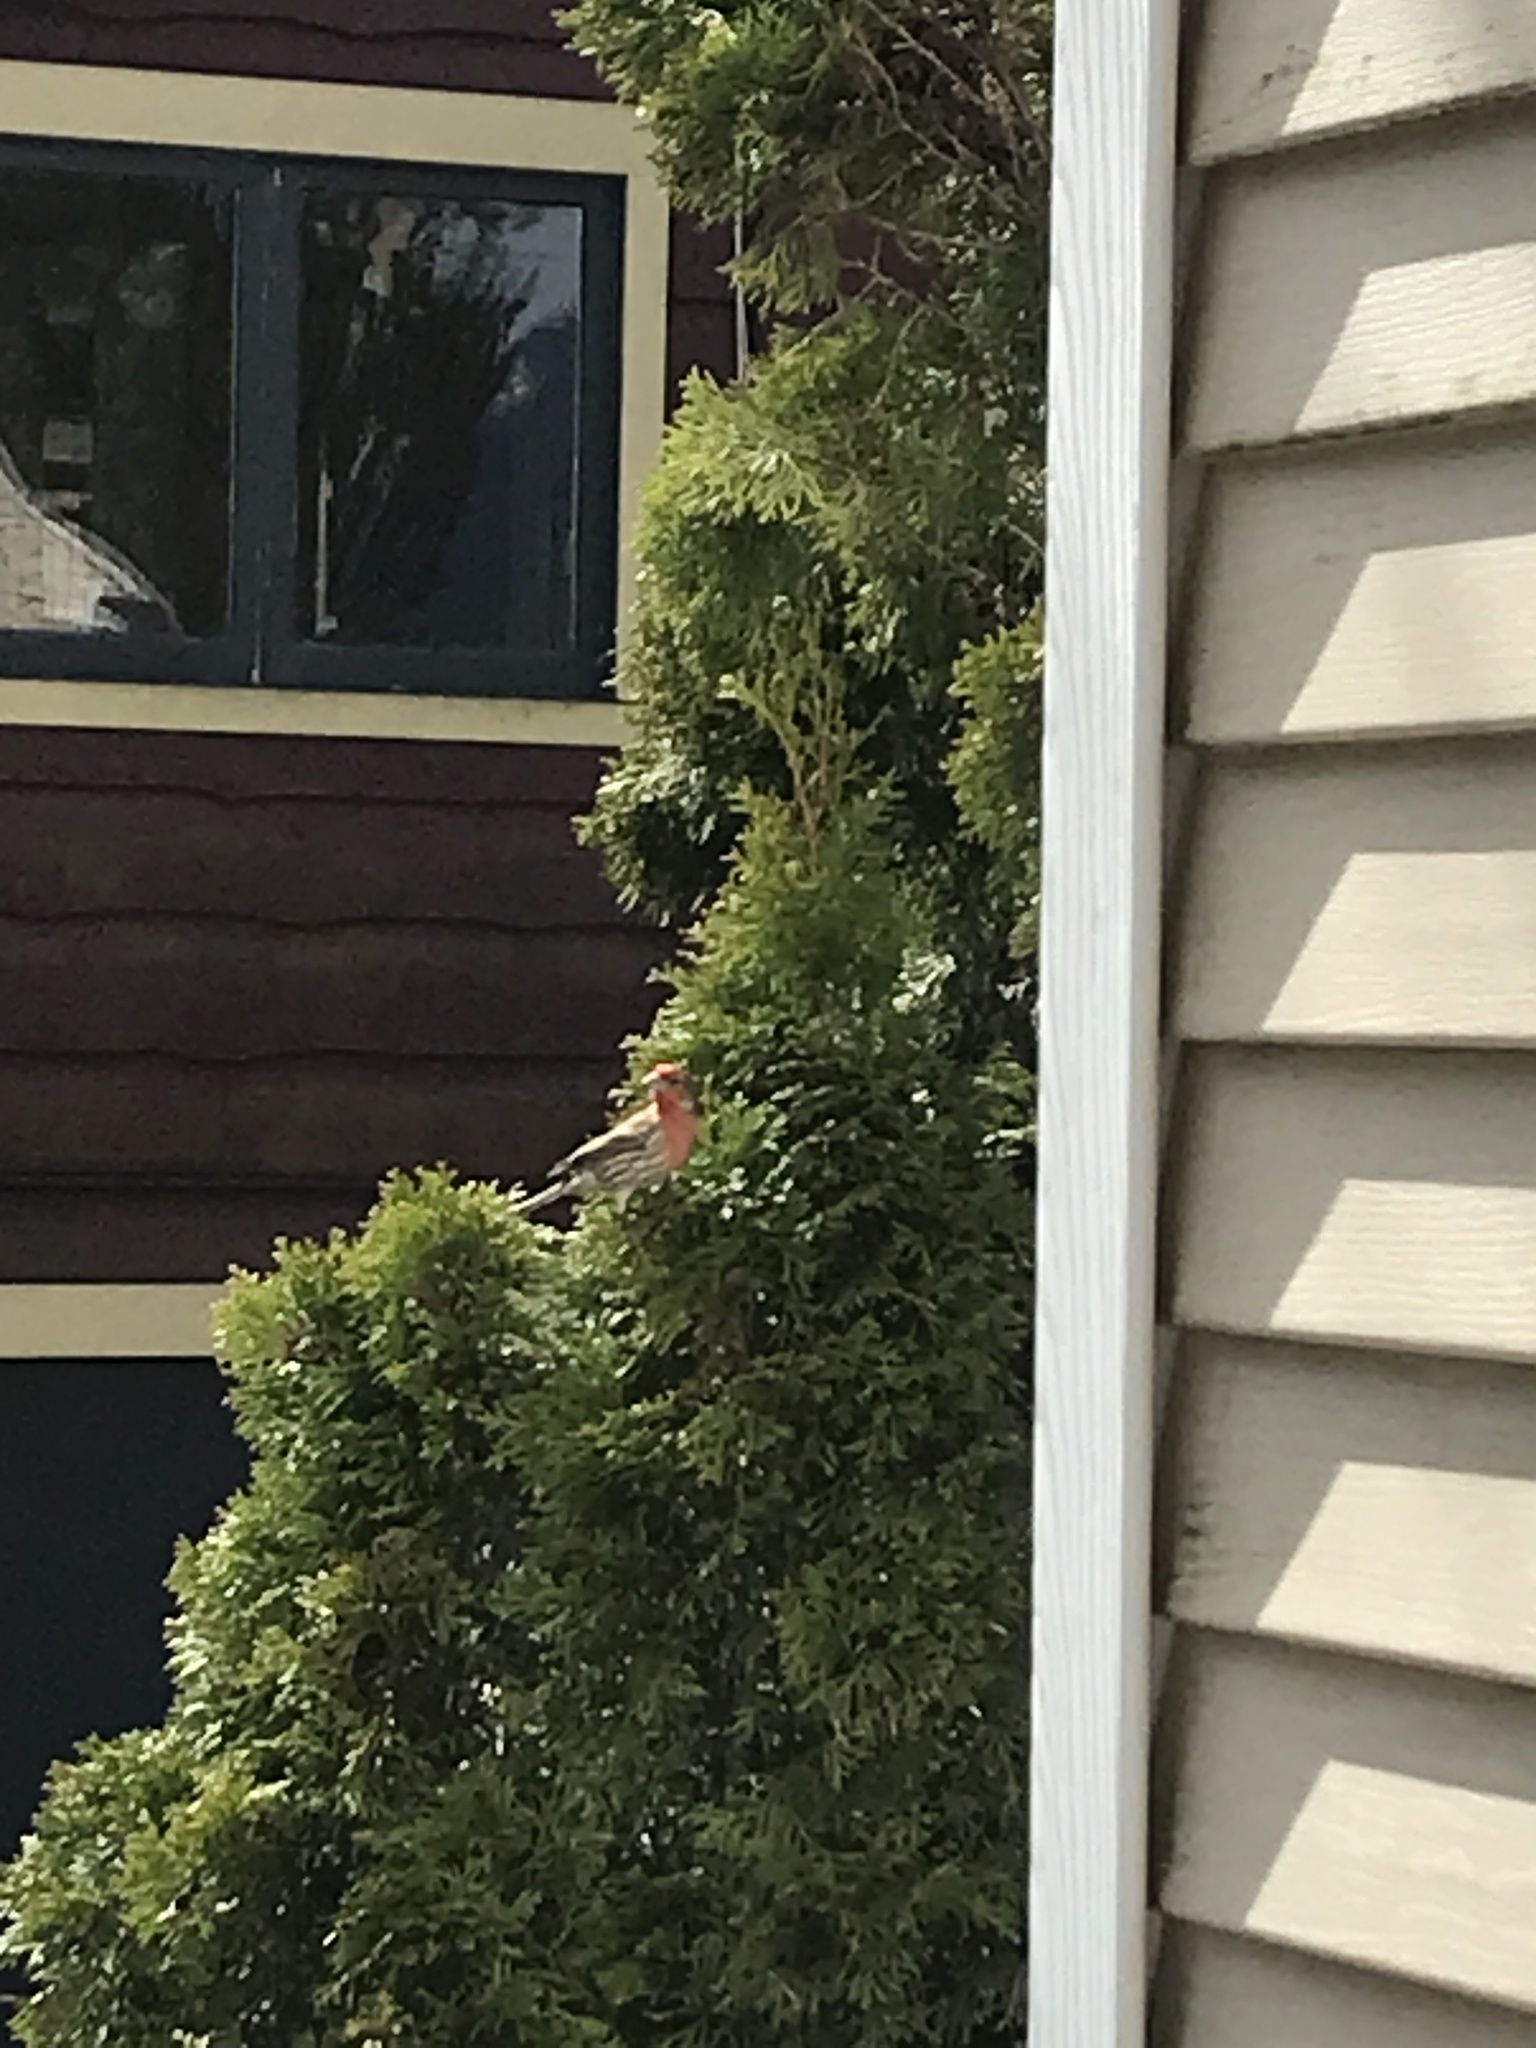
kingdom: Animalia
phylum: Chordata
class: Aves
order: Passeriformes
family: Fringillidae
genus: Haemorhous
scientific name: Haemorhous mexicanus
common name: House finch
